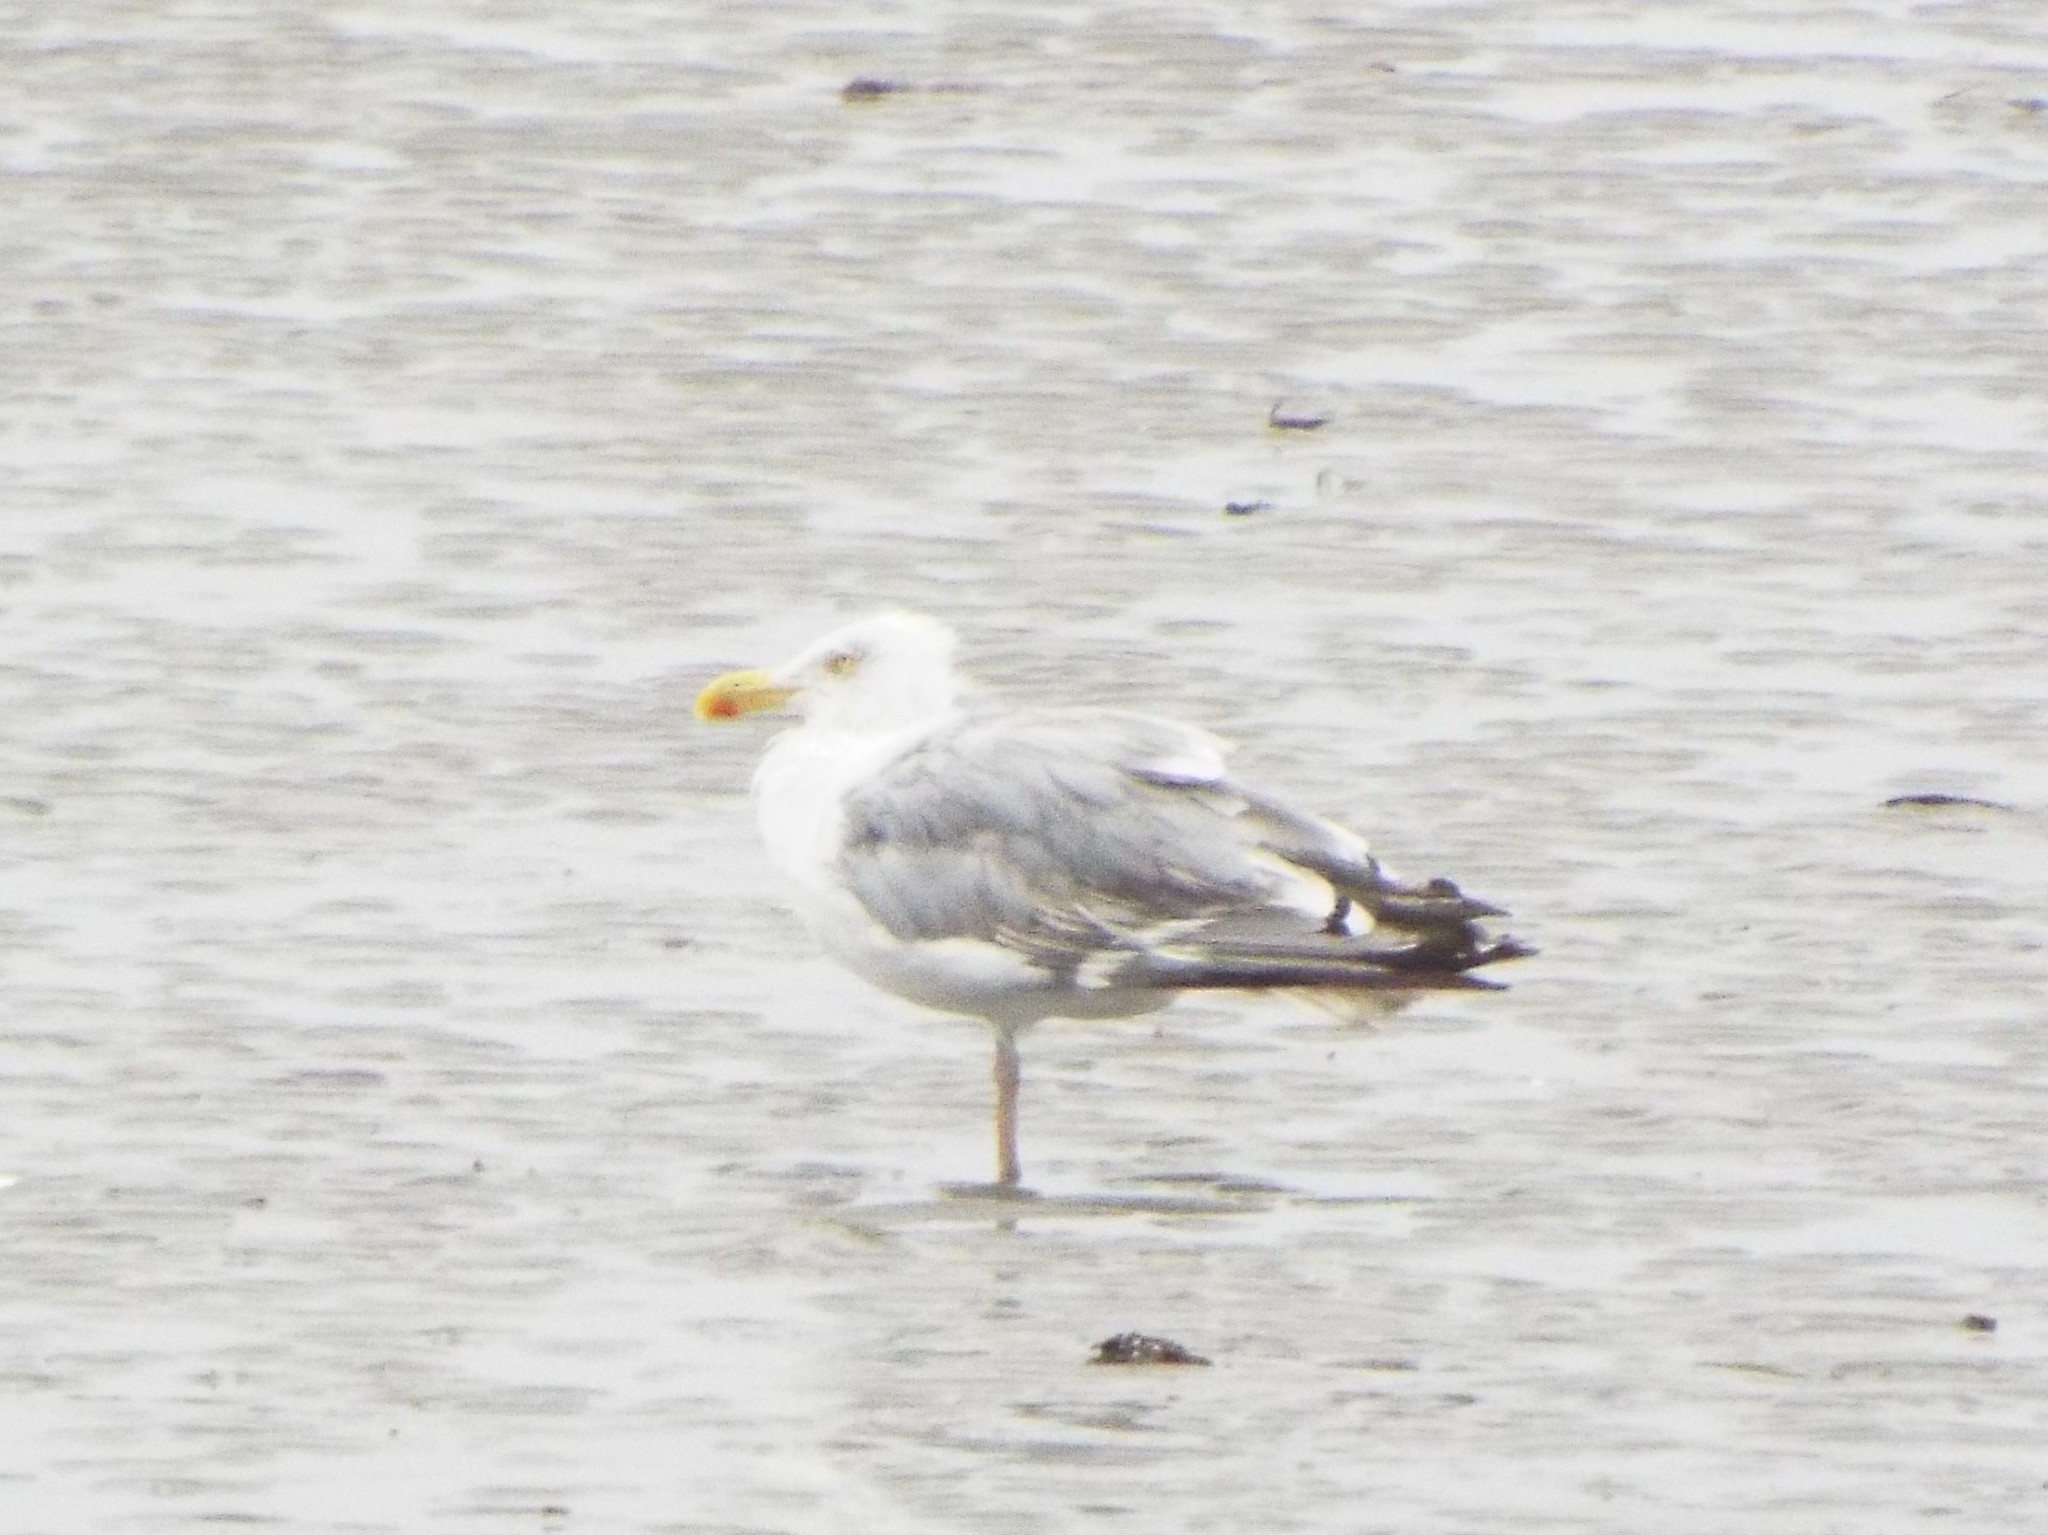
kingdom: Animalia
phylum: Chordata
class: Aves
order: Charadriiformes
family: Laridae
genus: Larus
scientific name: Larus argentatus
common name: Herring gull
